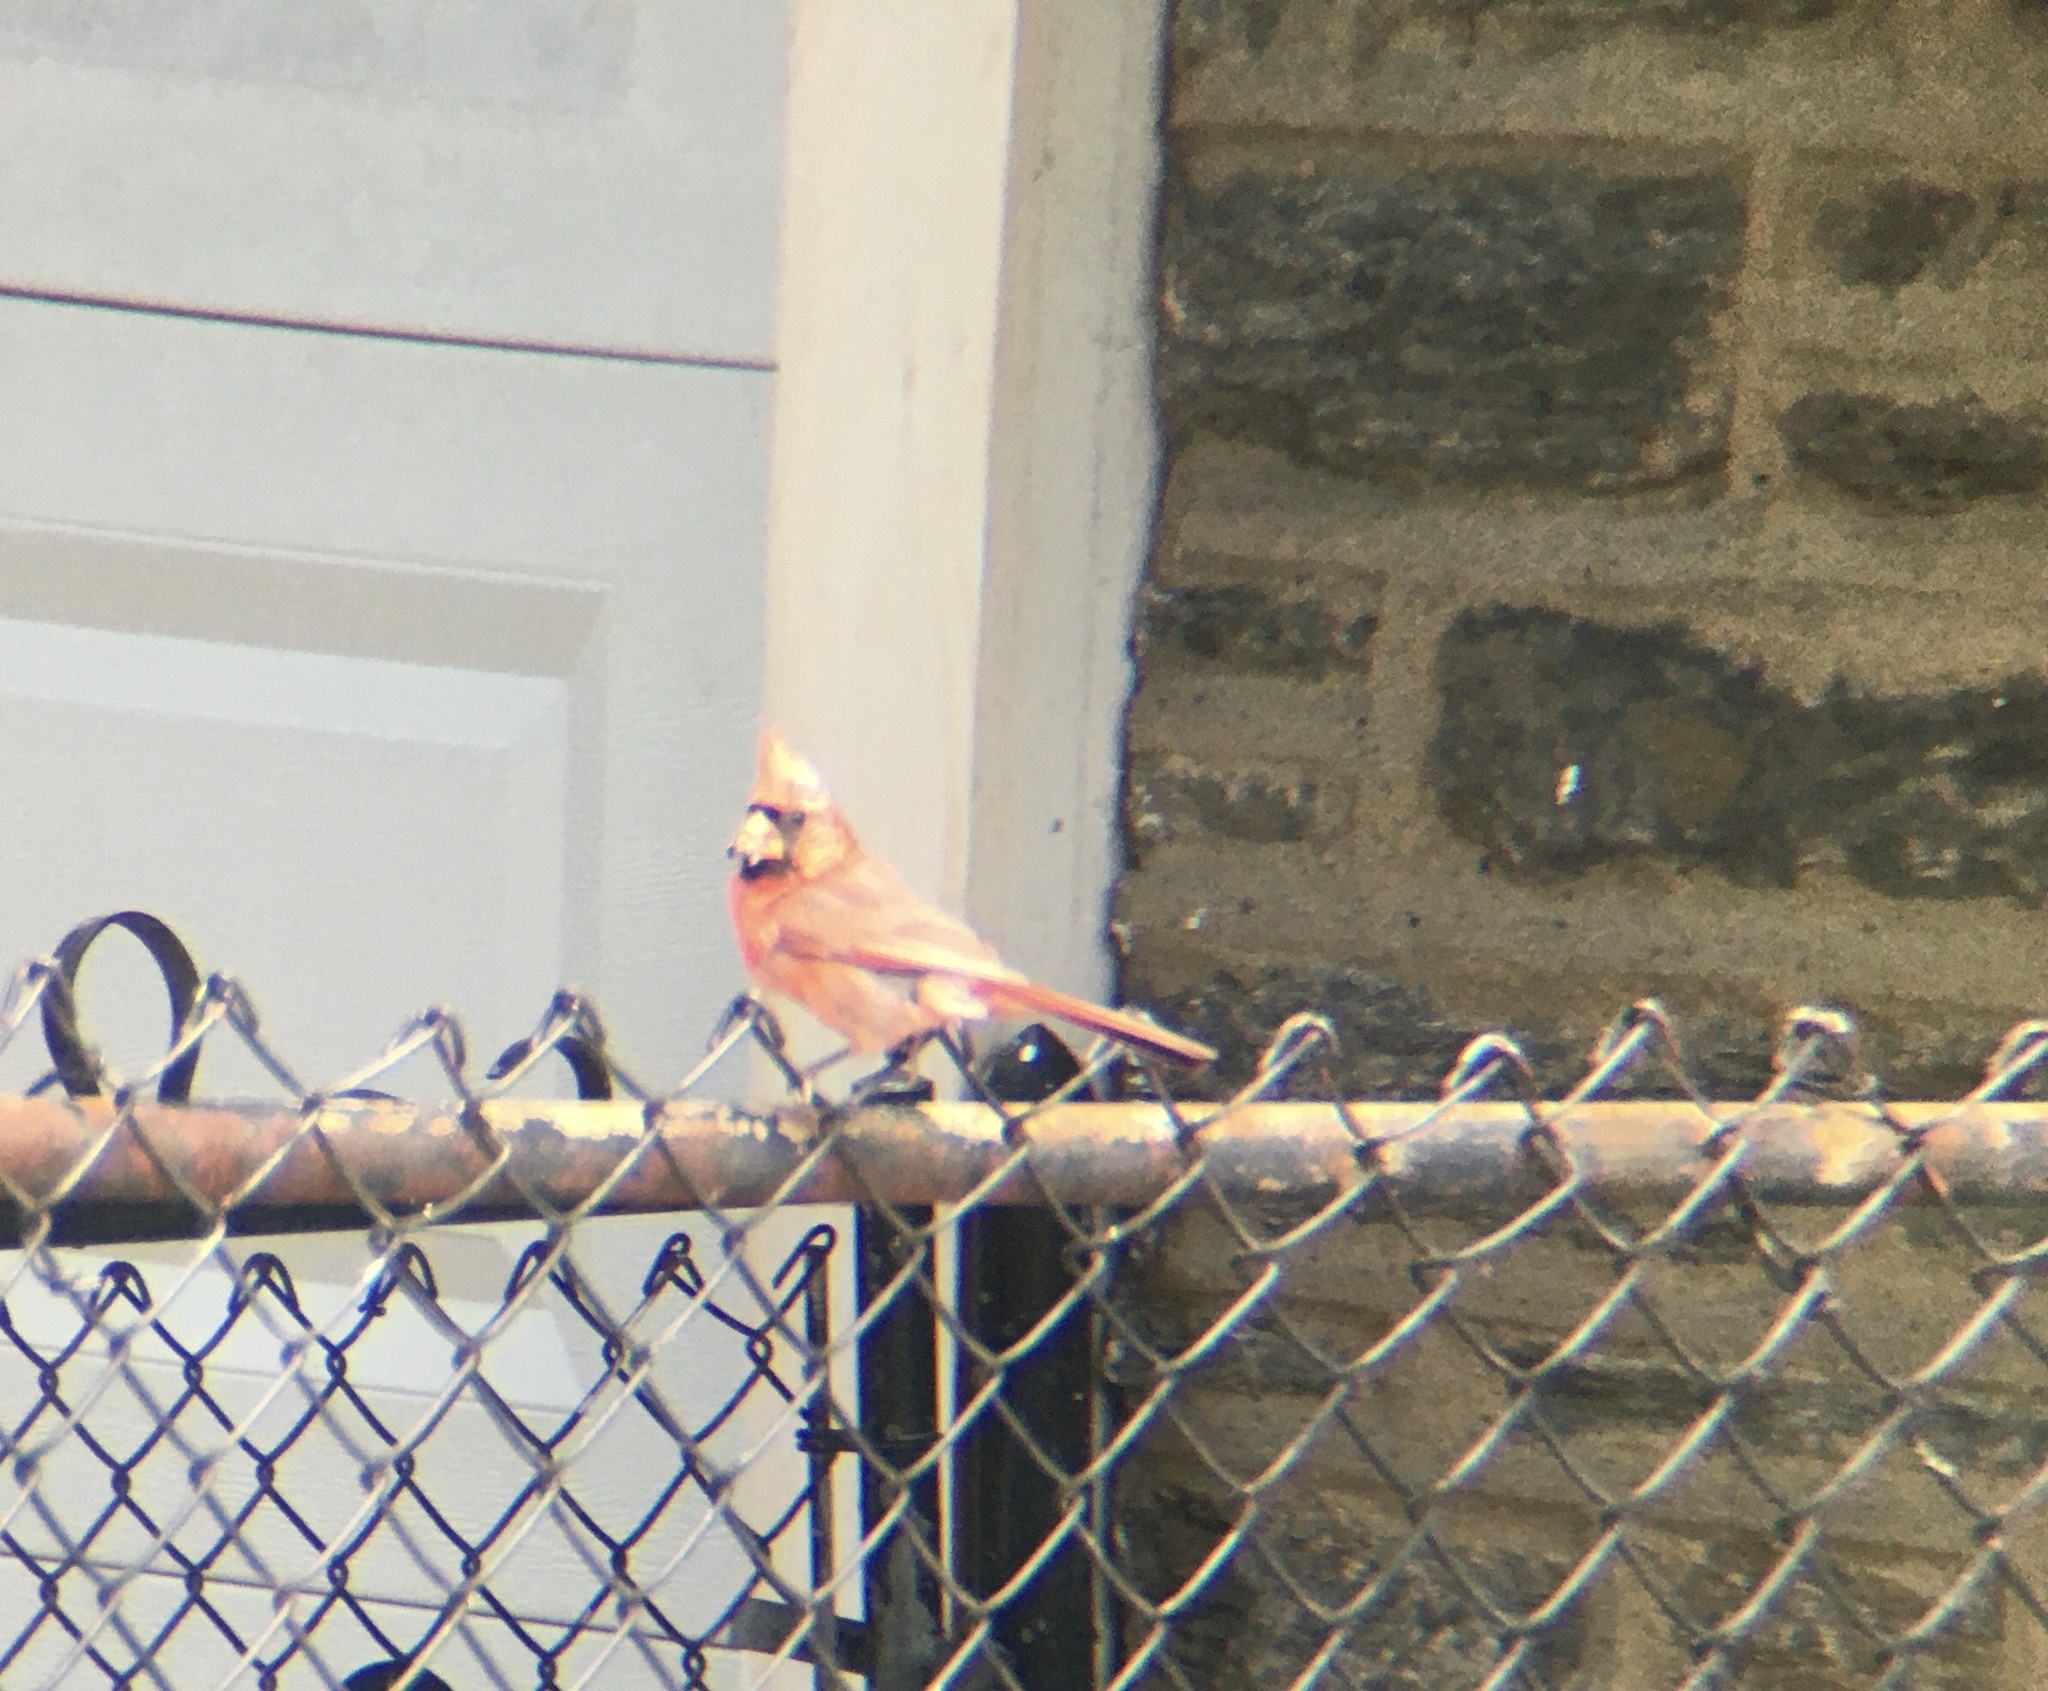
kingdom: Animalia
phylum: Chordata
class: Aves
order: Passeriformes
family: Cardinalidae
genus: Cardinalis
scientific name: Cardinalis cardinalis
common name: Northern cardinal
